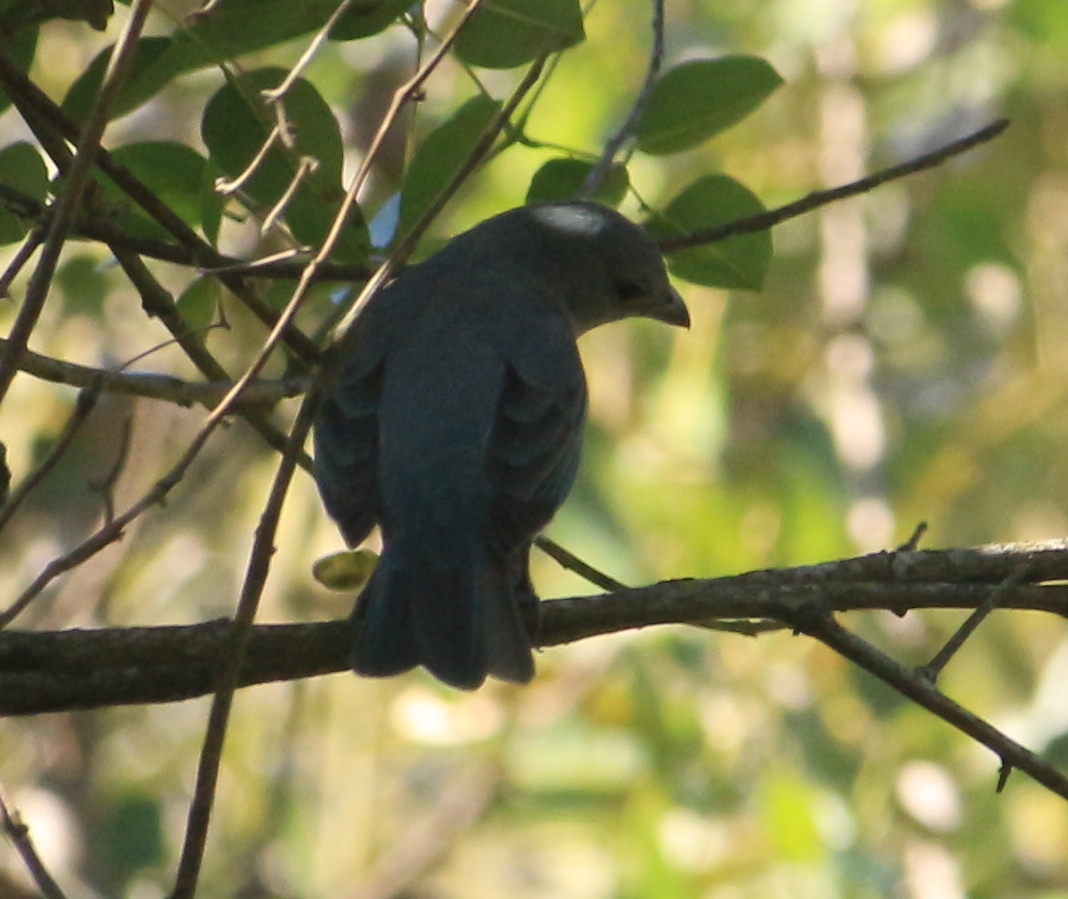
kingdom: Animalia
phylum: Chordata
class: Aves
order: Passeriformes
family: Thraupidae
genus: Thraupis
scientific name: Thraupis sayaca
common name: Sayaca tanager
